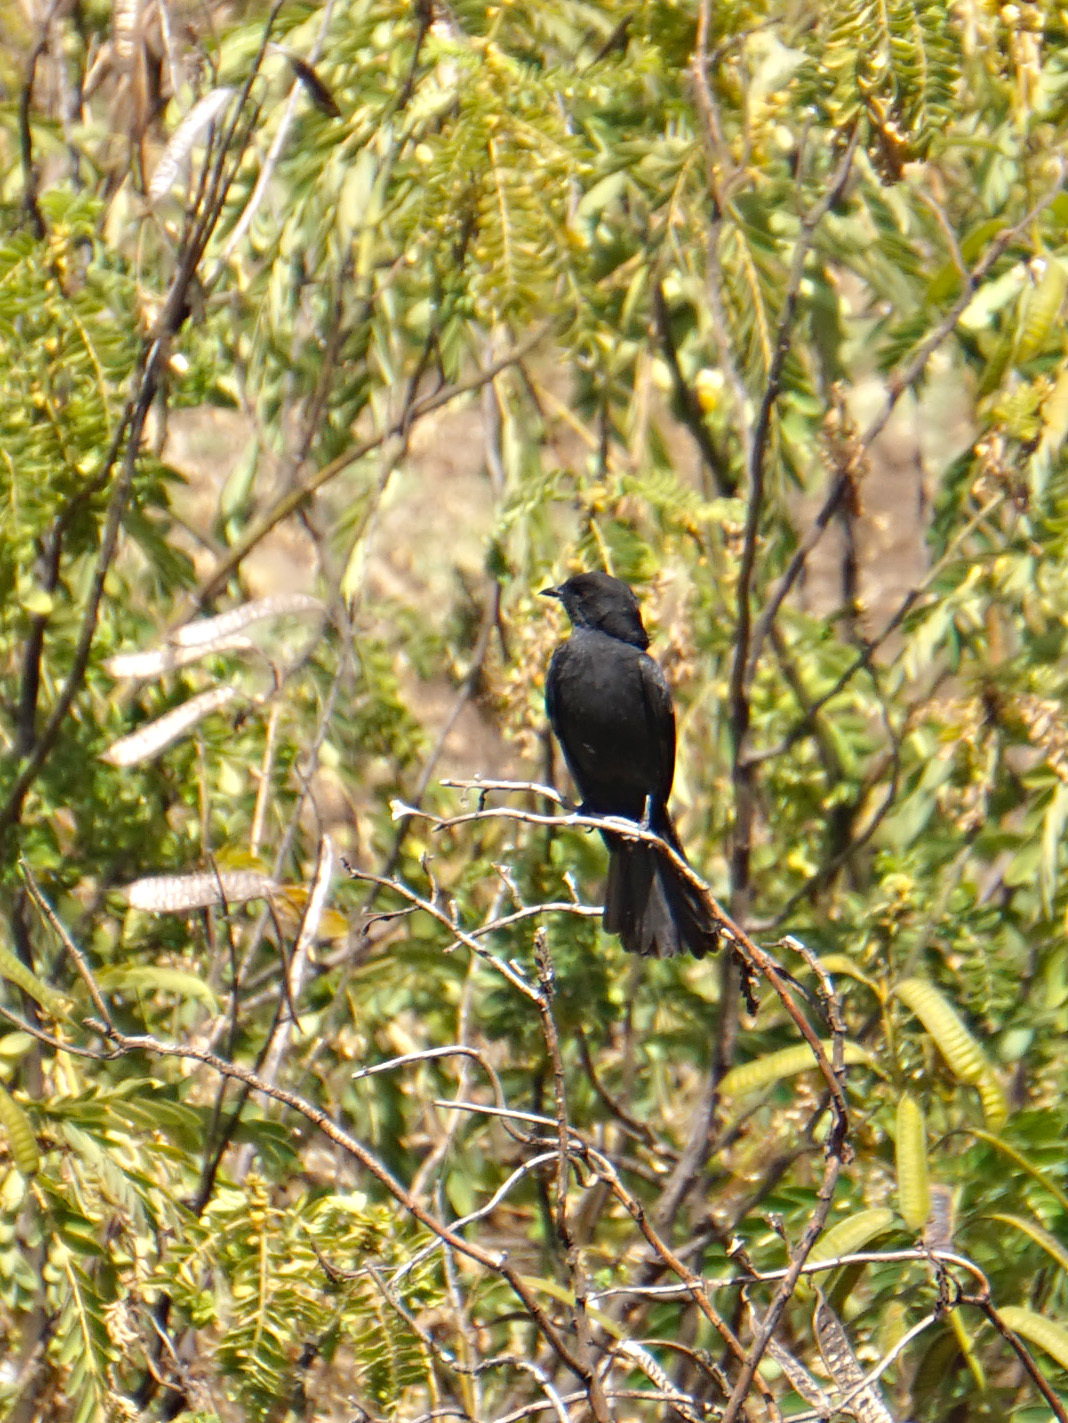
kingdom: Animalia
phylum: Chordata
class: Aves
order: Passeriformes
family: Muscicapidae
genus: Melaenornis
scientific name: Melaenornis edolioides
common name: Northern black flycatcher
